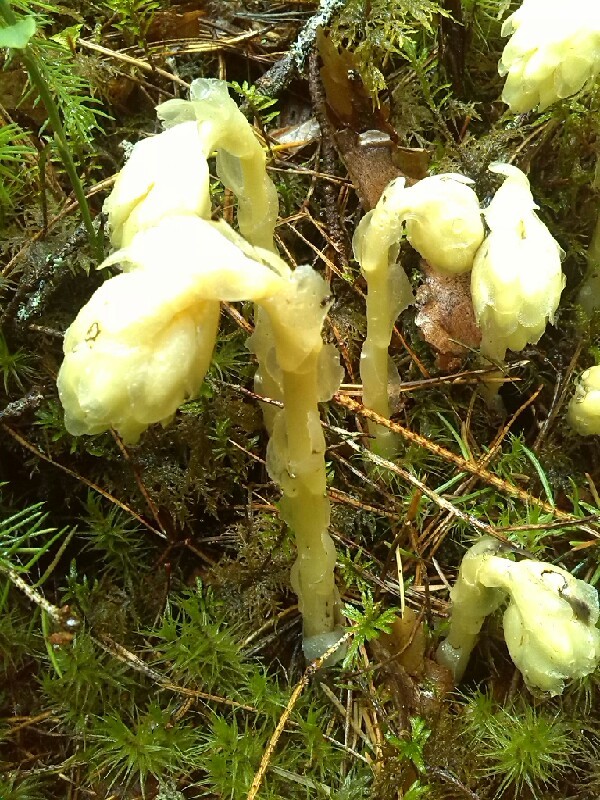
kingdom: Plantae
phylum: Tracheophyta
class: Magnoliopsida
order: Ericales
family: Ericaceae
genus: Hypopitys
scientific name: Hypopitys monotropa
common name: Yellow bird's-nest
